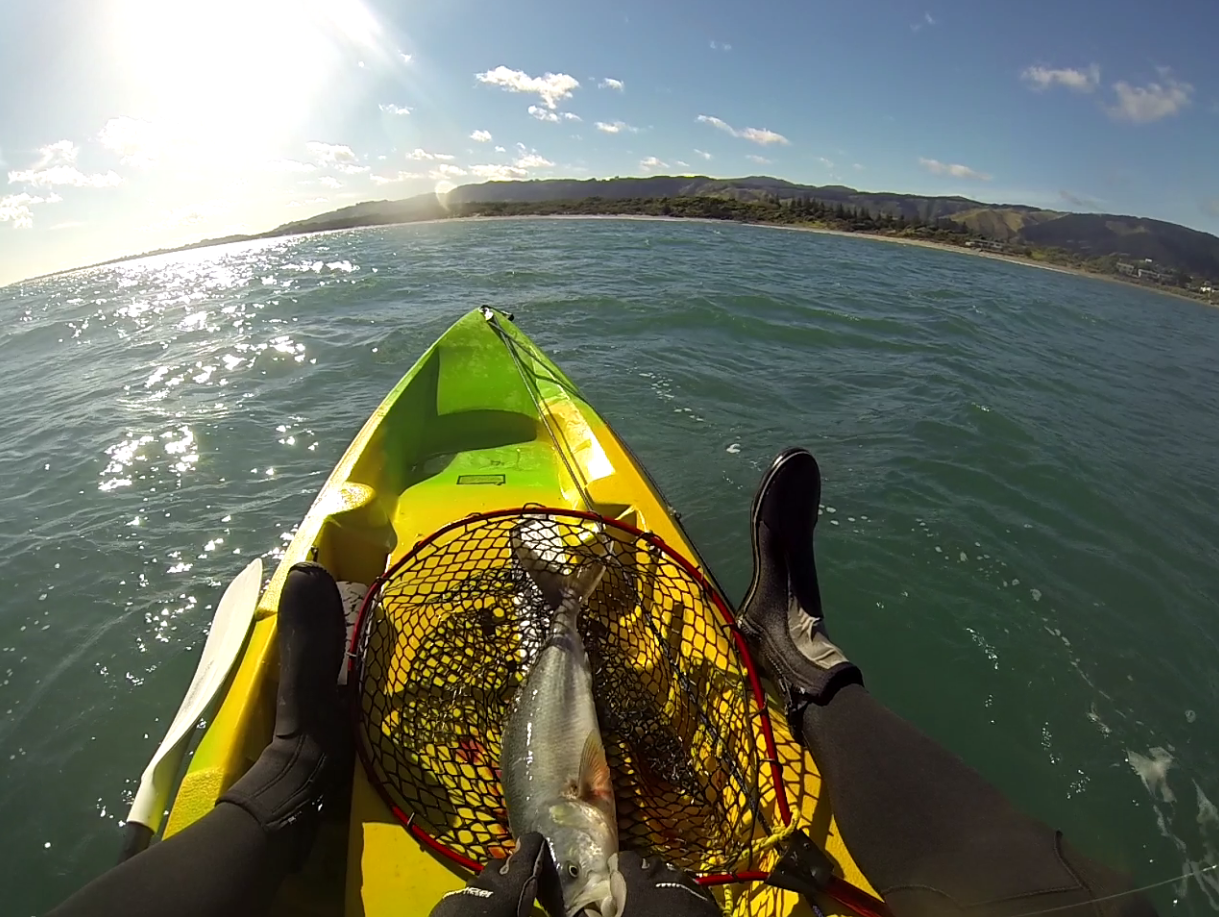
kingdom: Animalia
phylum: Chordata
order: Perciformes
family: Arripidae
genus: Arripis
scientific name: Arripis trutta
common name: Kahawai
